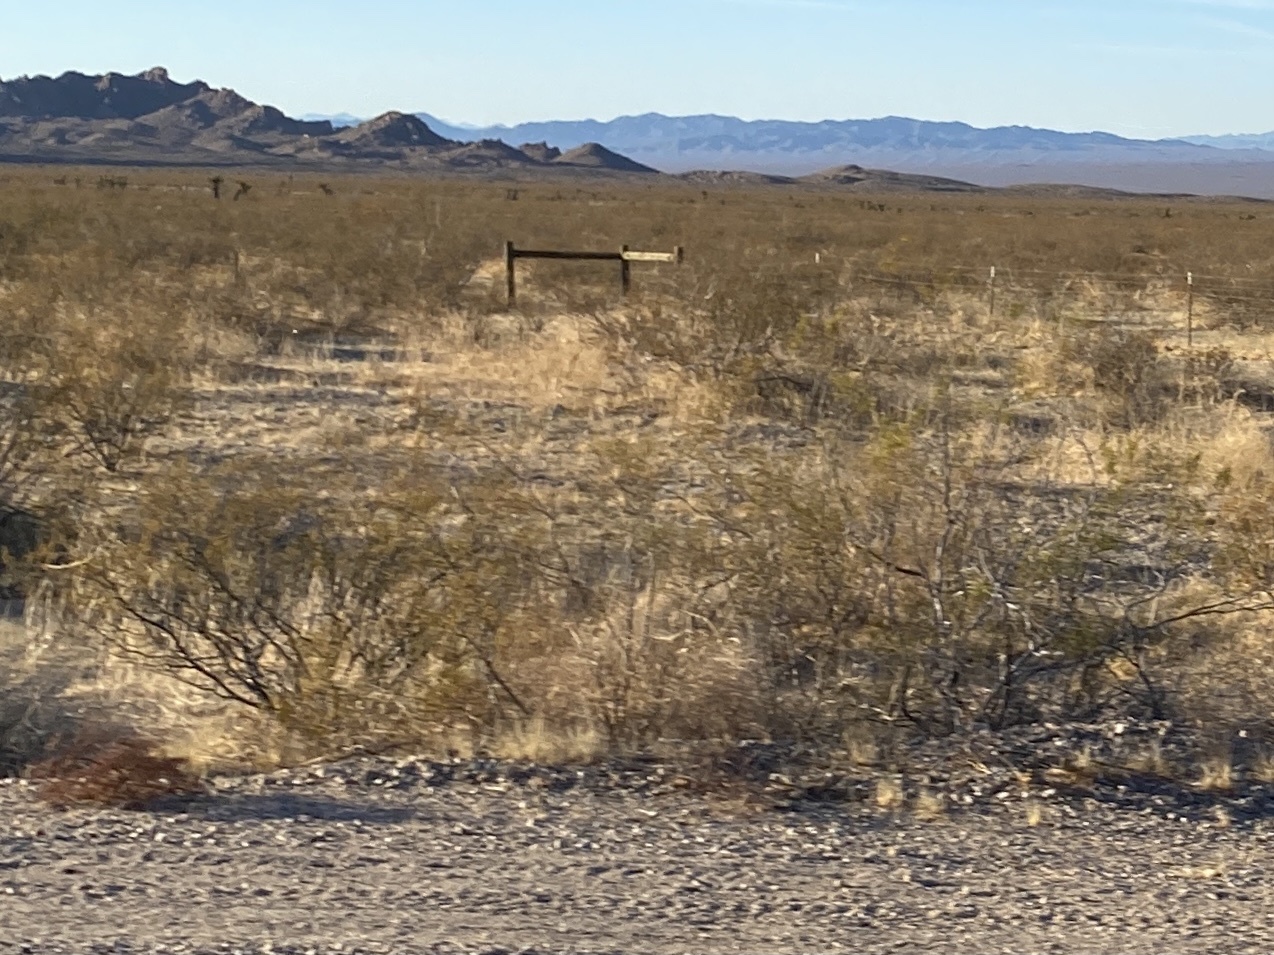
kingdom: Plantae
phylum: Tracheophyta
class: Magnoliopsida
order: Zygophyllales
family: Zygophyllaceae
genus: Larrea
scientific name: Larrea tridentata
